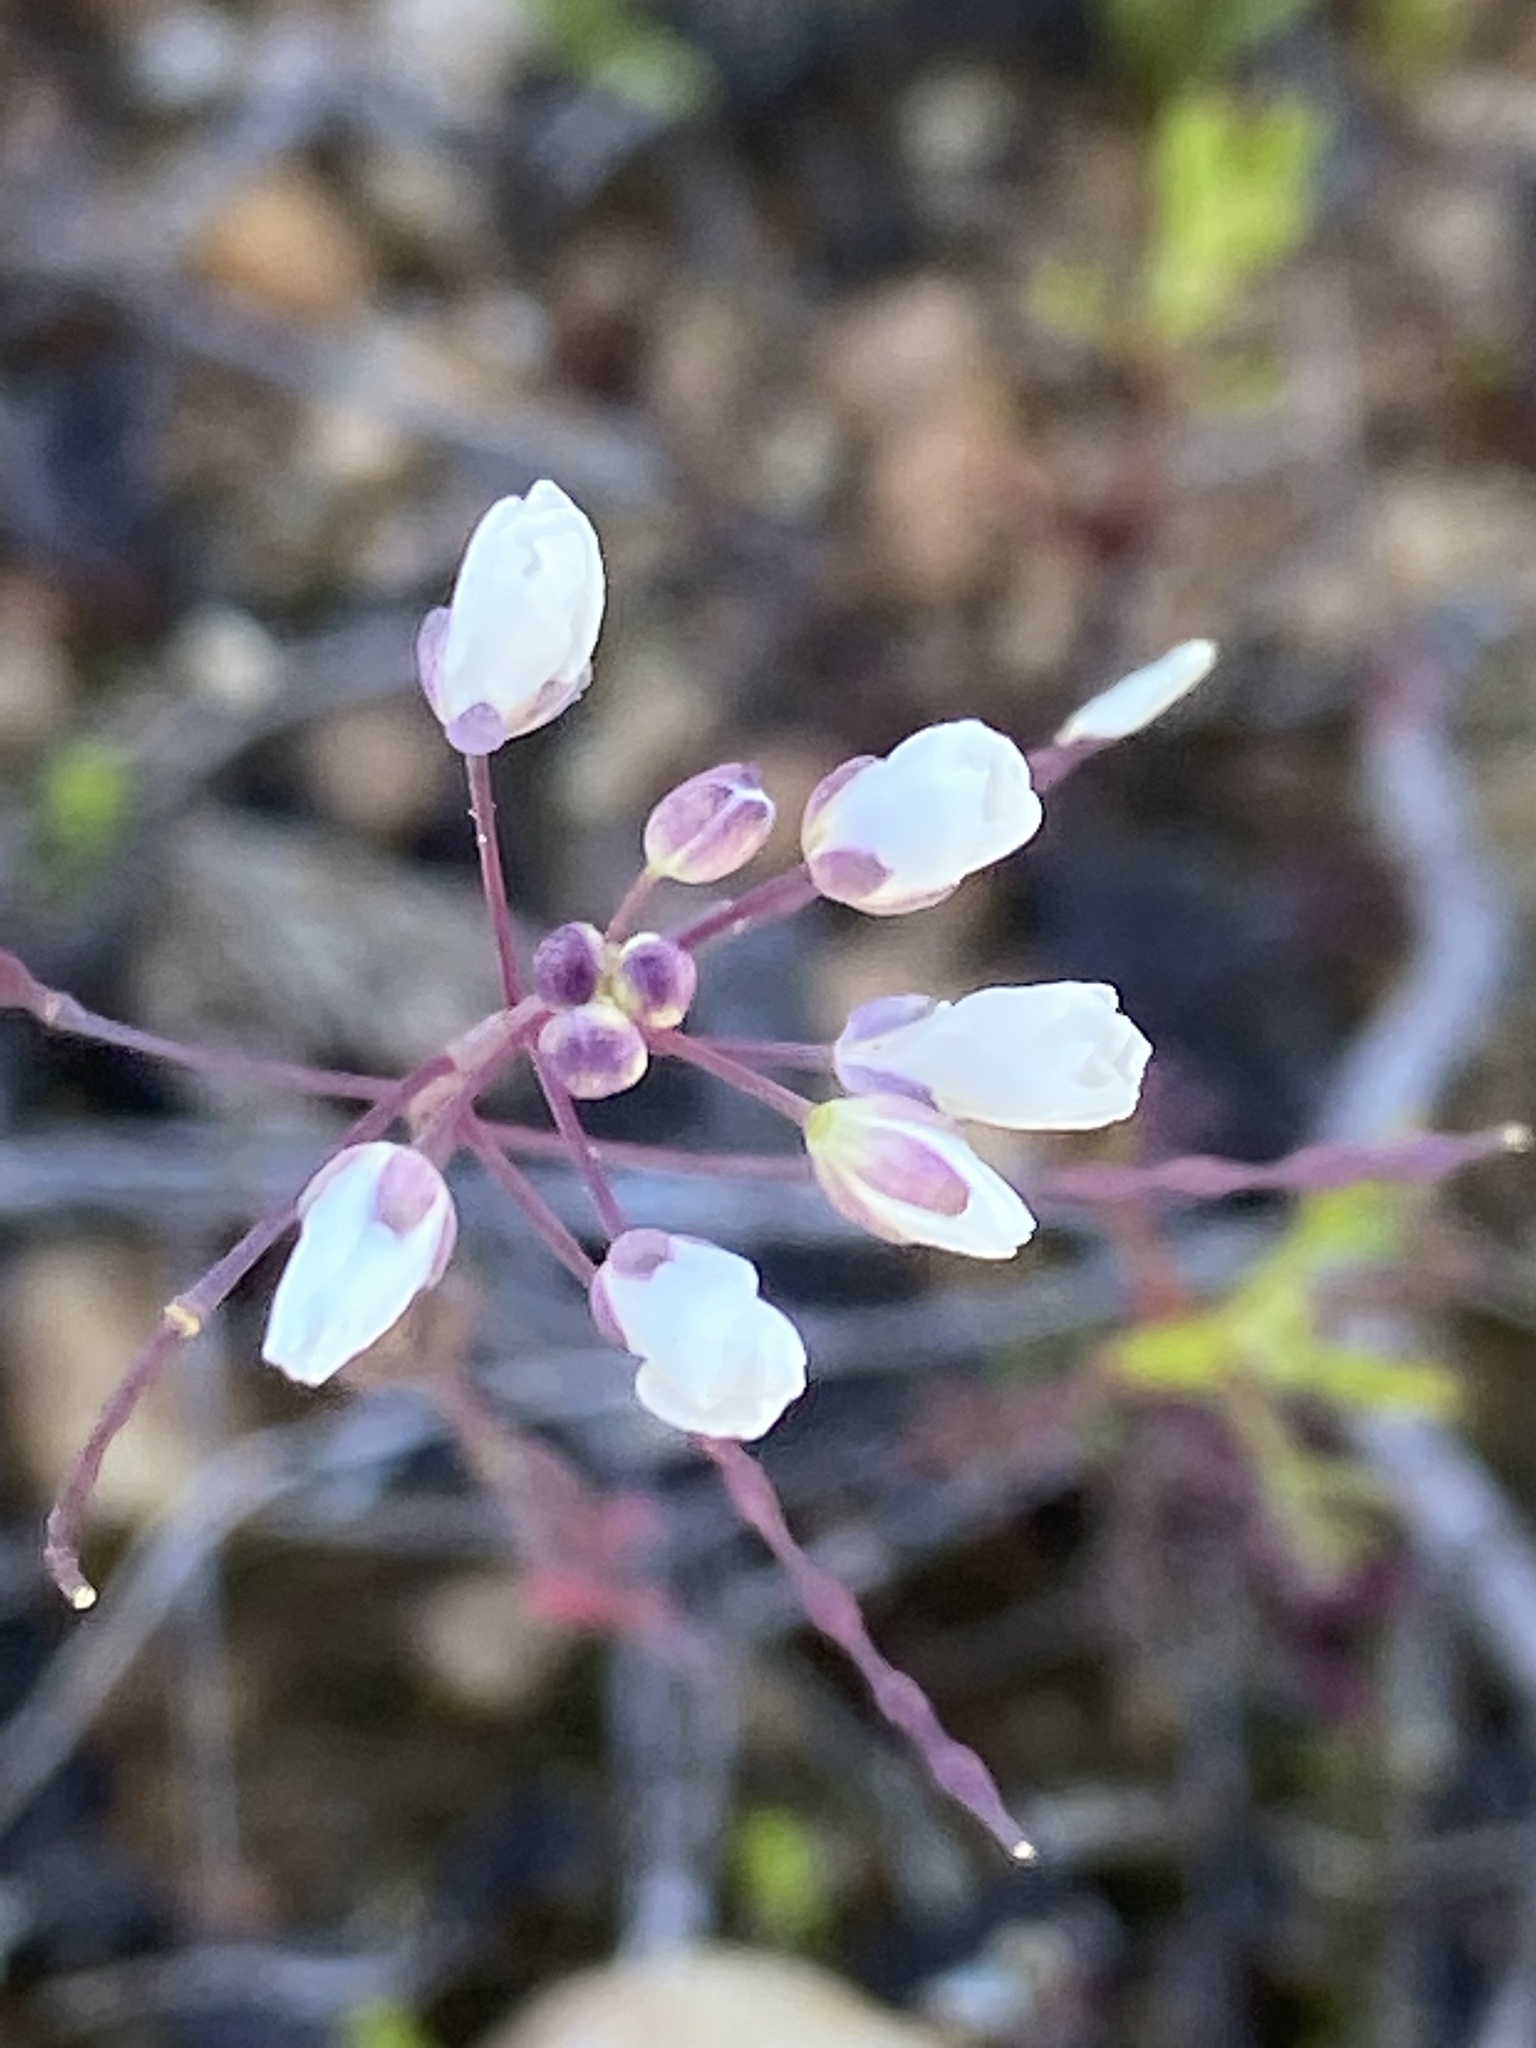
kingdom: Plantae
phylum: Tracheophyta
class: Magnoliopsida
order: Brassicales
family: Brassicaceae
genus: Heliophila
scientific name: Heliophila pusilla
